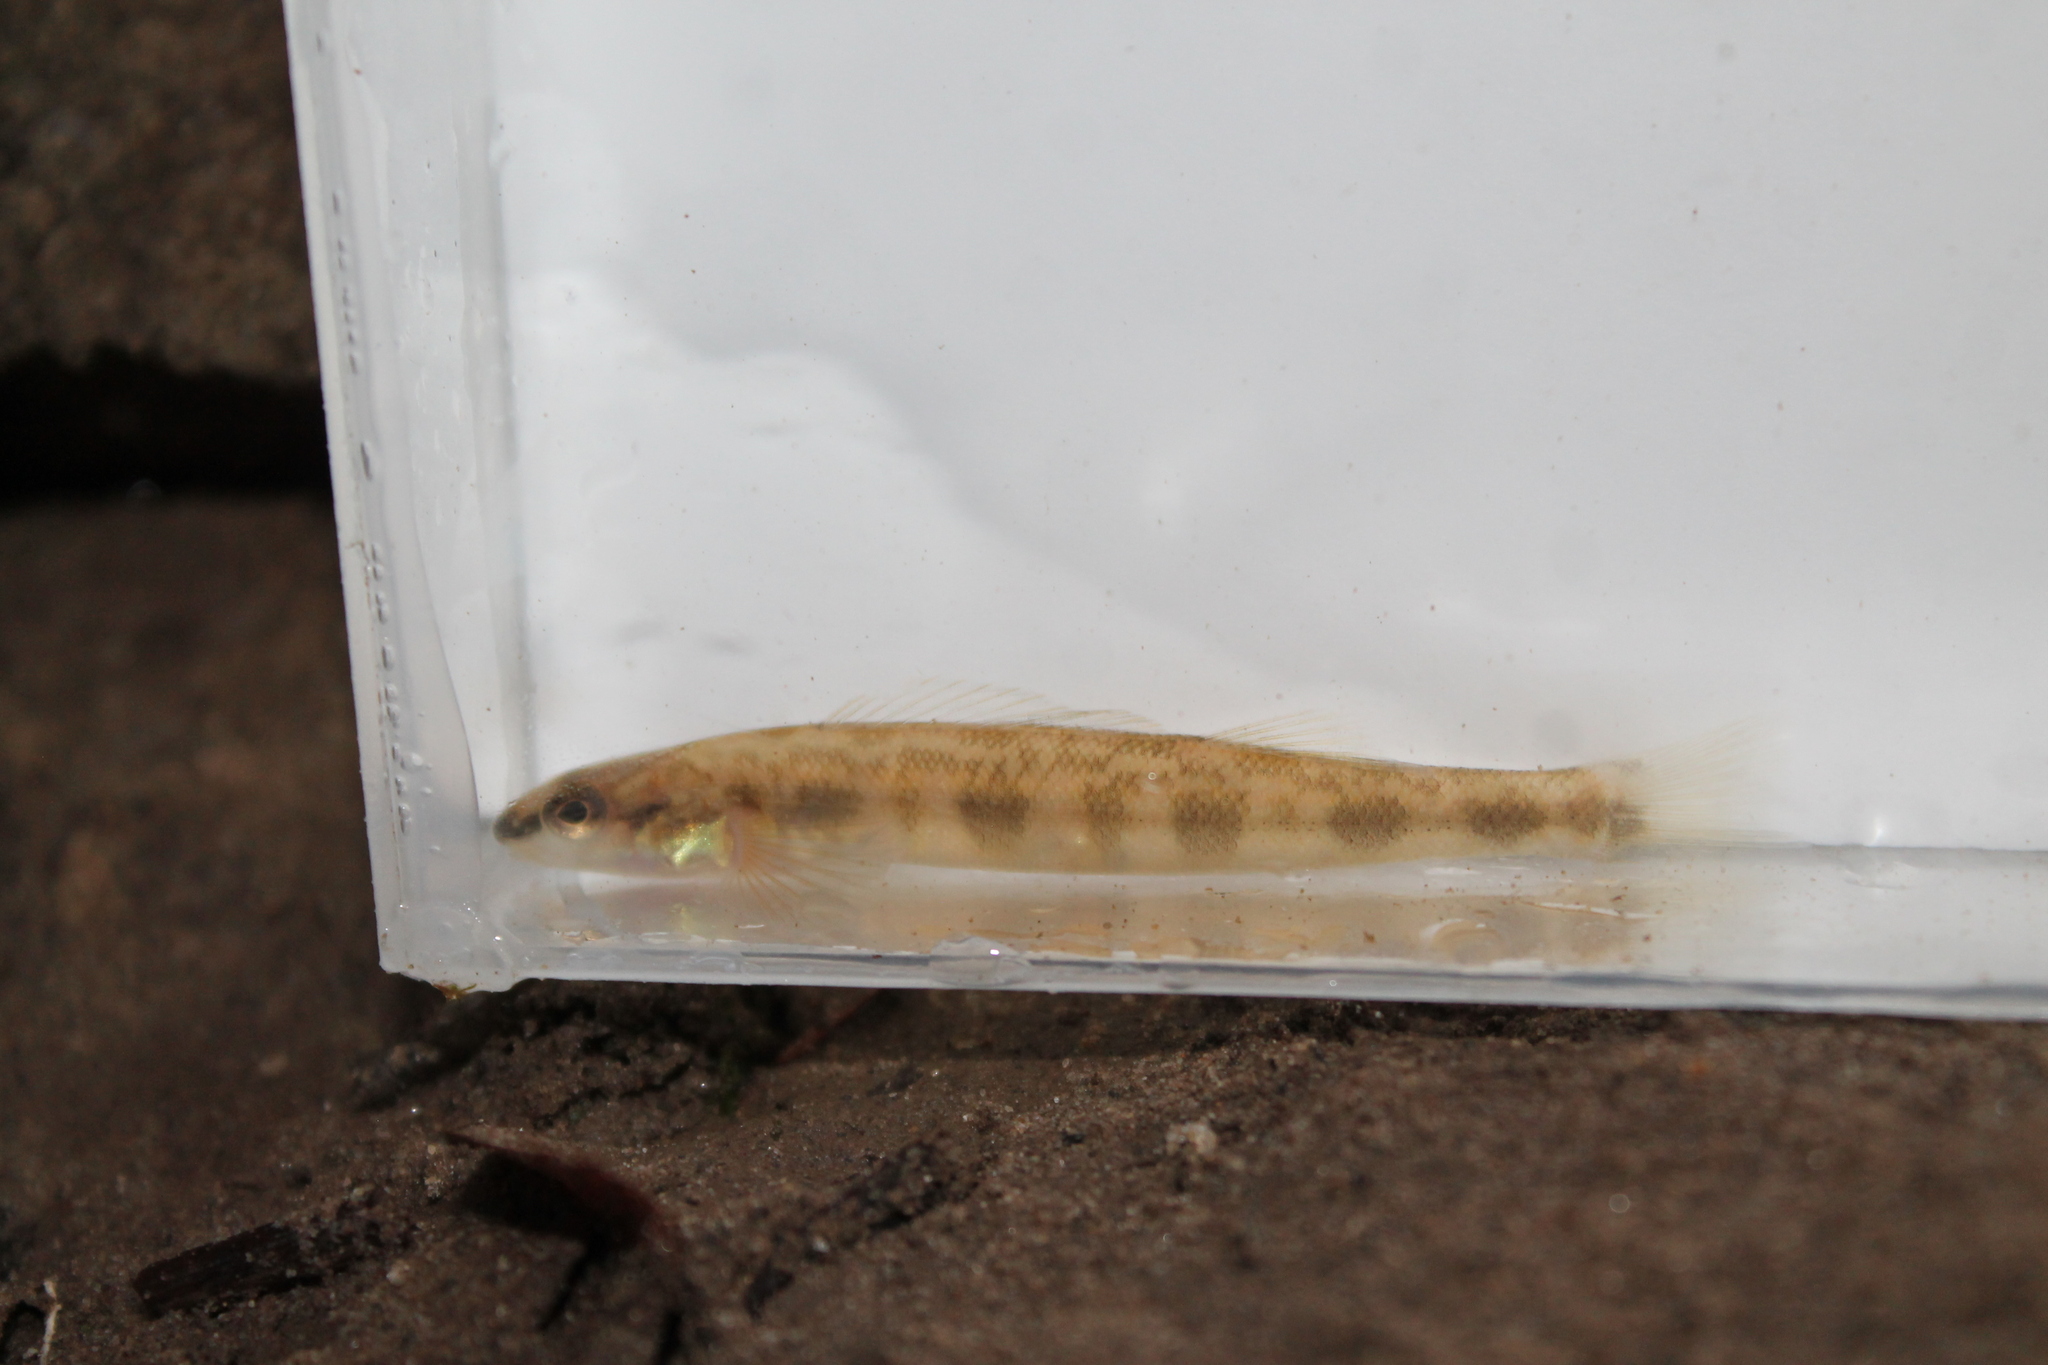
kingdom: Animalia
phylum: Chordata
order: Perciformes
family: Percidae
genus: Percina
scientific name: Percina sipsi
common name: Bankhead darter
